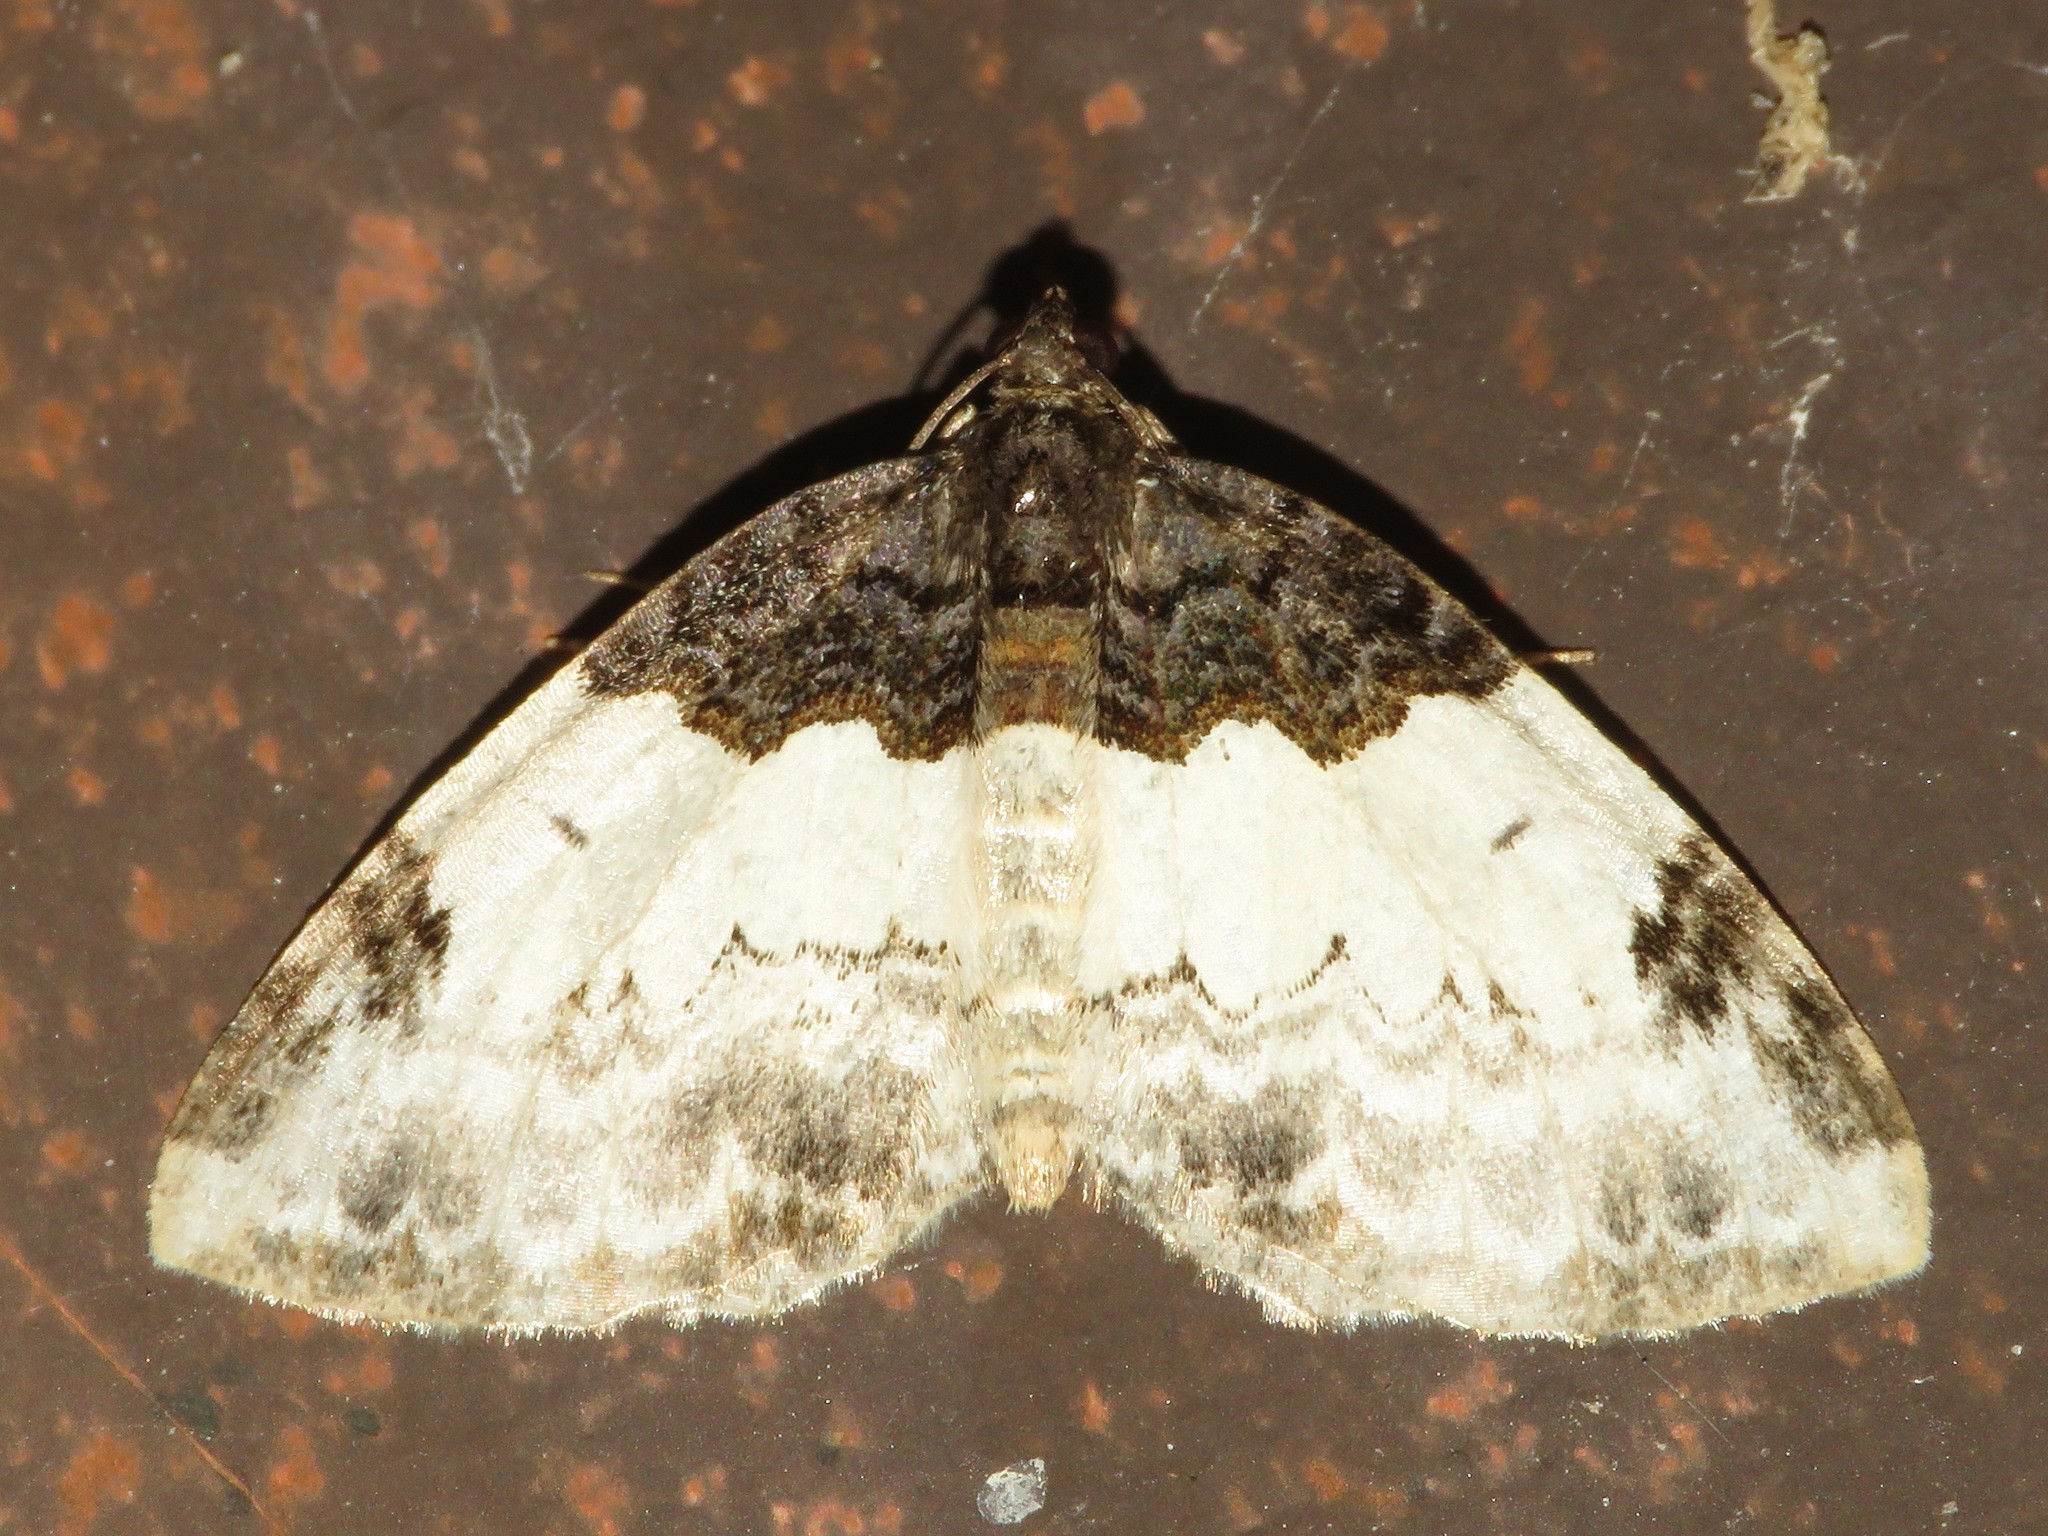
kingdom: Animalia
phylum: Arthropoda
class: Insecta
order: Lepidoptera
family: Geometridae
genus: Mesoleuca
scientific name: Mesoleuca ruficillata
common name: White-ribboned carpet moth
